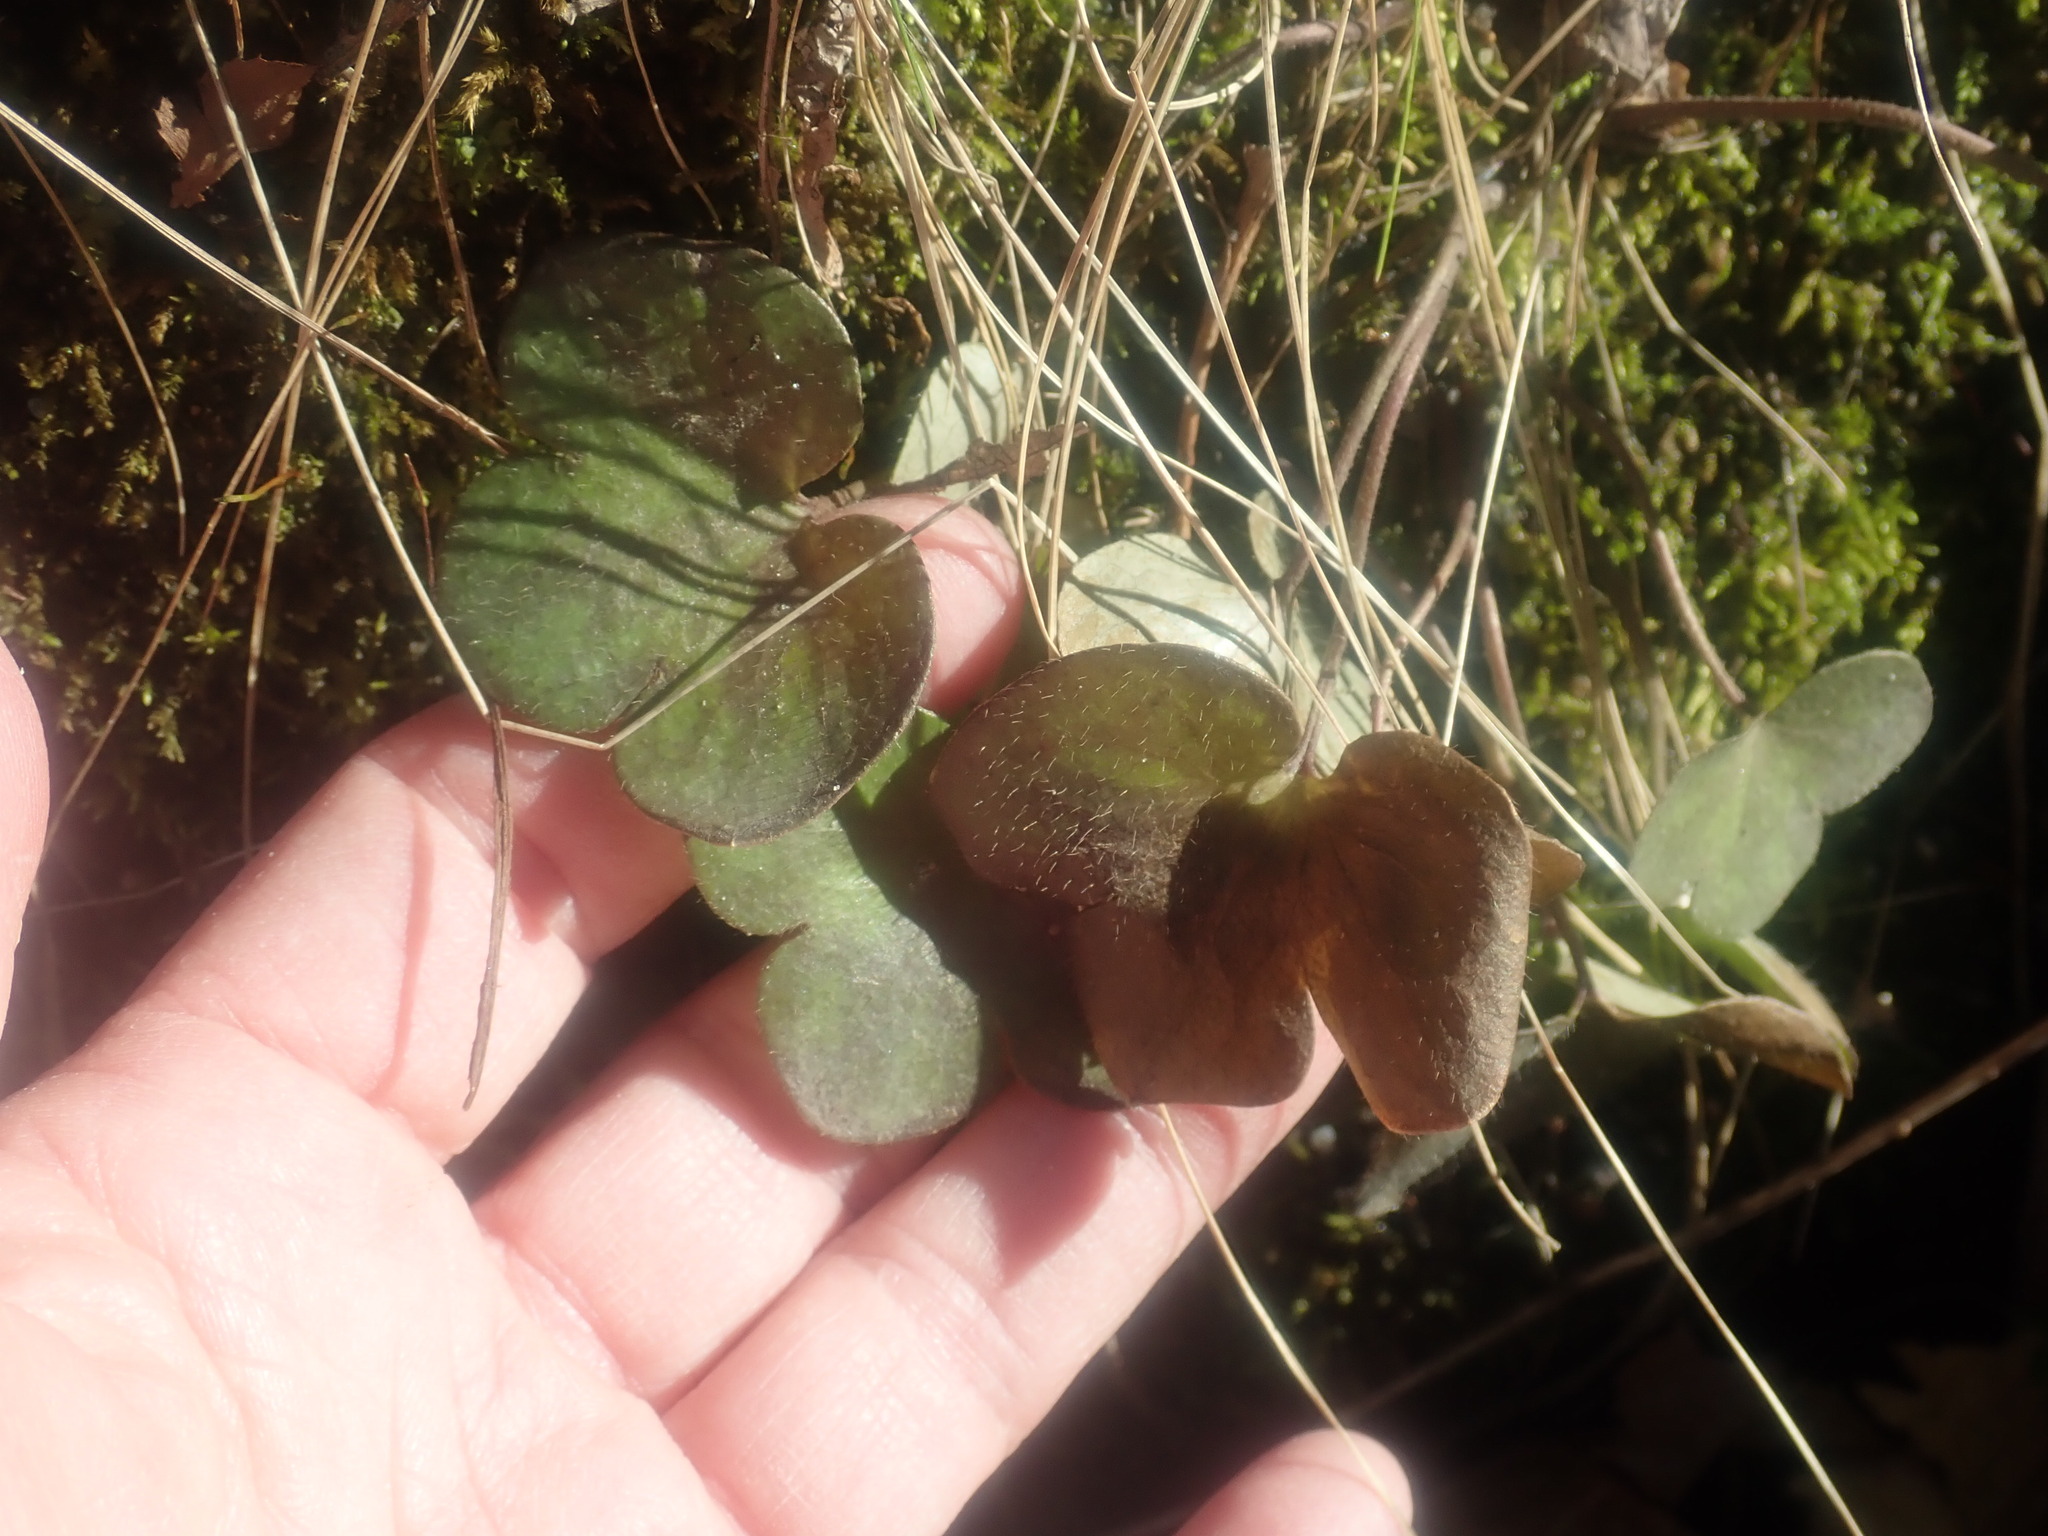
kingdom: Plantae
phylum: Tracheophyta
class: Magnoliopsida
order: Ranunculales
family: Ranunculaceae
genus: Hepatica
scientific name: Hepatica americana
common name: American hepatica
